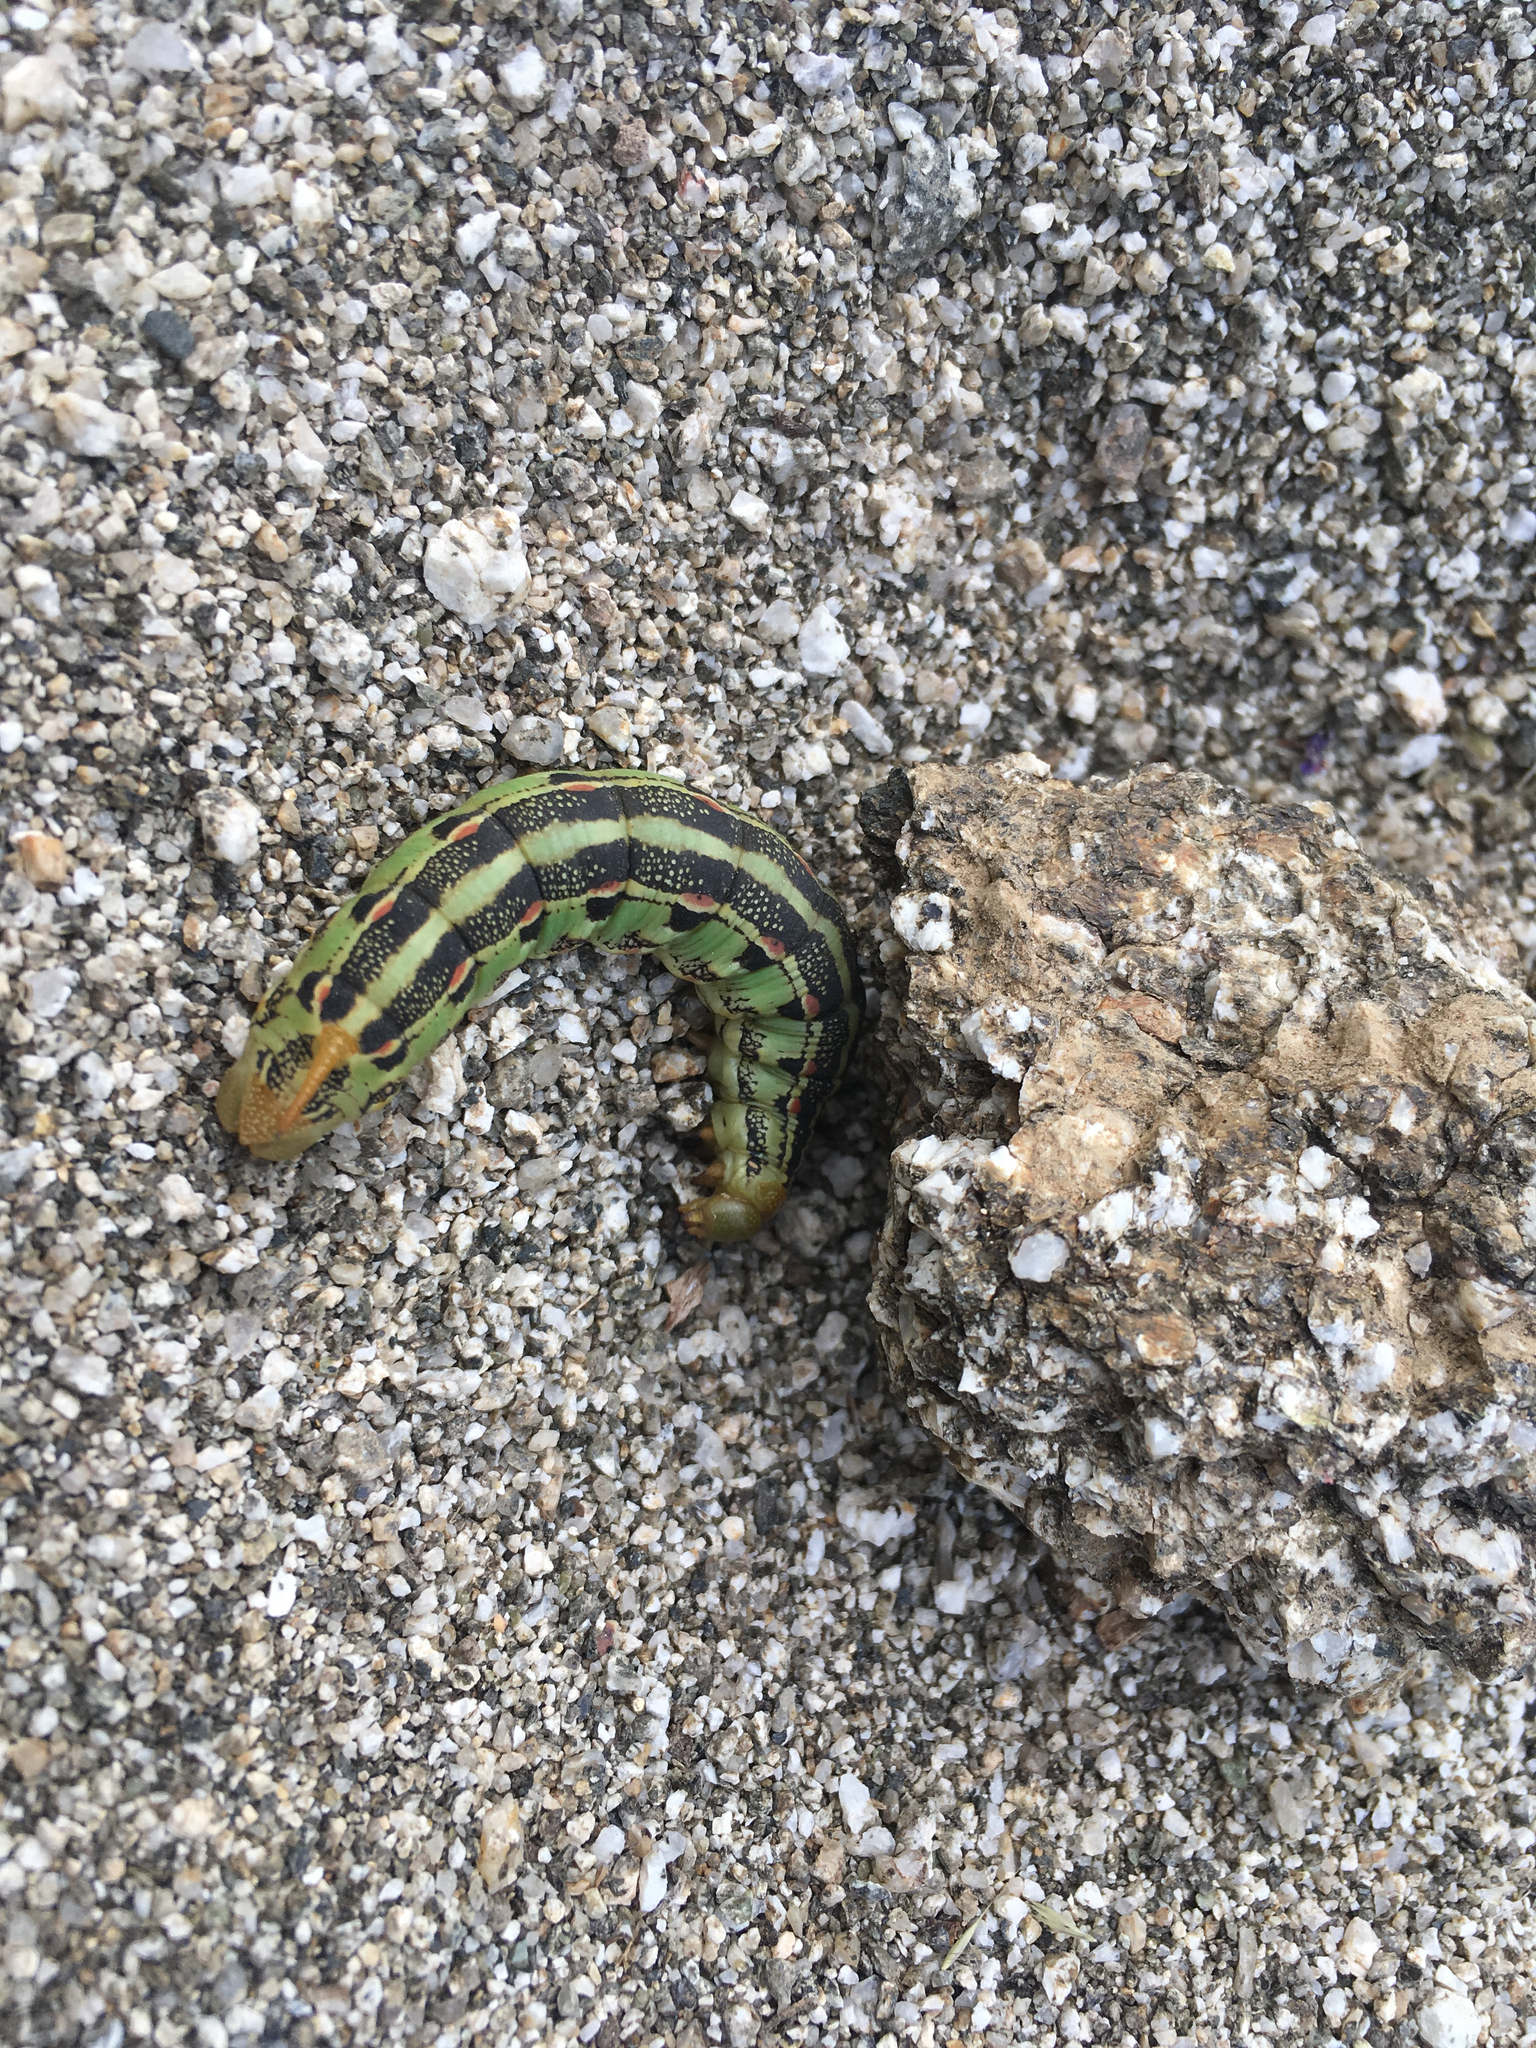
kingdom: Animalia
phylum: Arthropoda
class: Insecta
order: Lepidoptera
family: Sphingidae
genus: Hyles
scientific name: Hyles lineata
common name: White-lined sphinx
